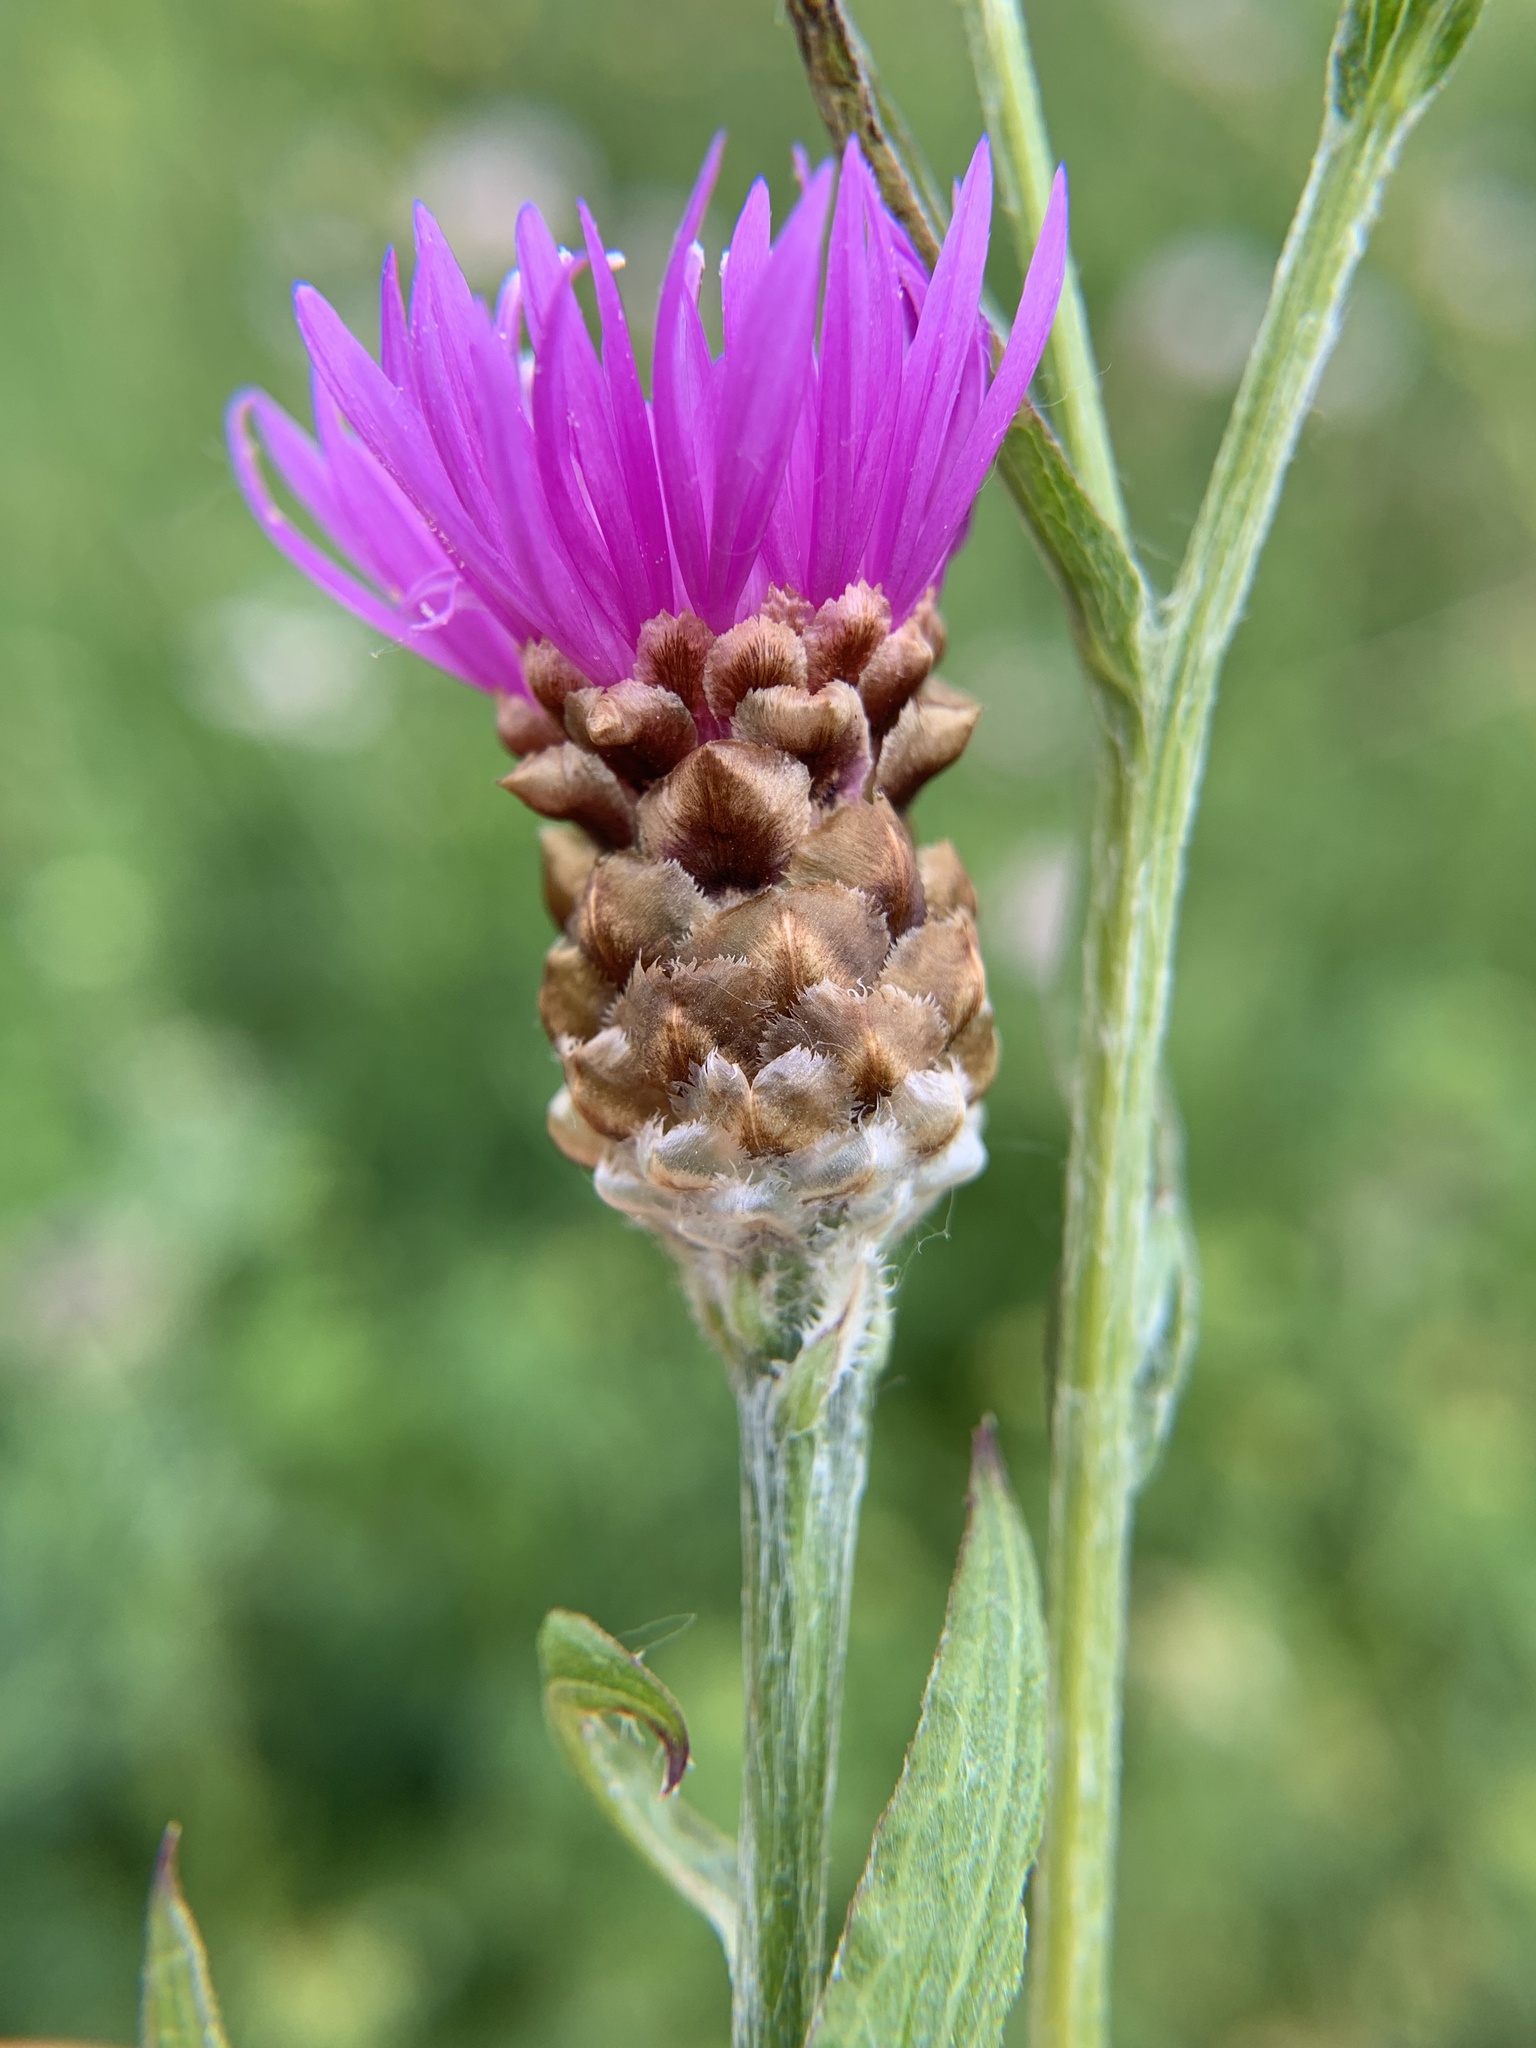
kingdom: Plantae
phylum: Tracheophyta
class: Magnoliopsida
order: Asterales
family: Asteraceae
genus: Centaurea
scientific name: Centaurea jacea
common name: Brown knapweed
